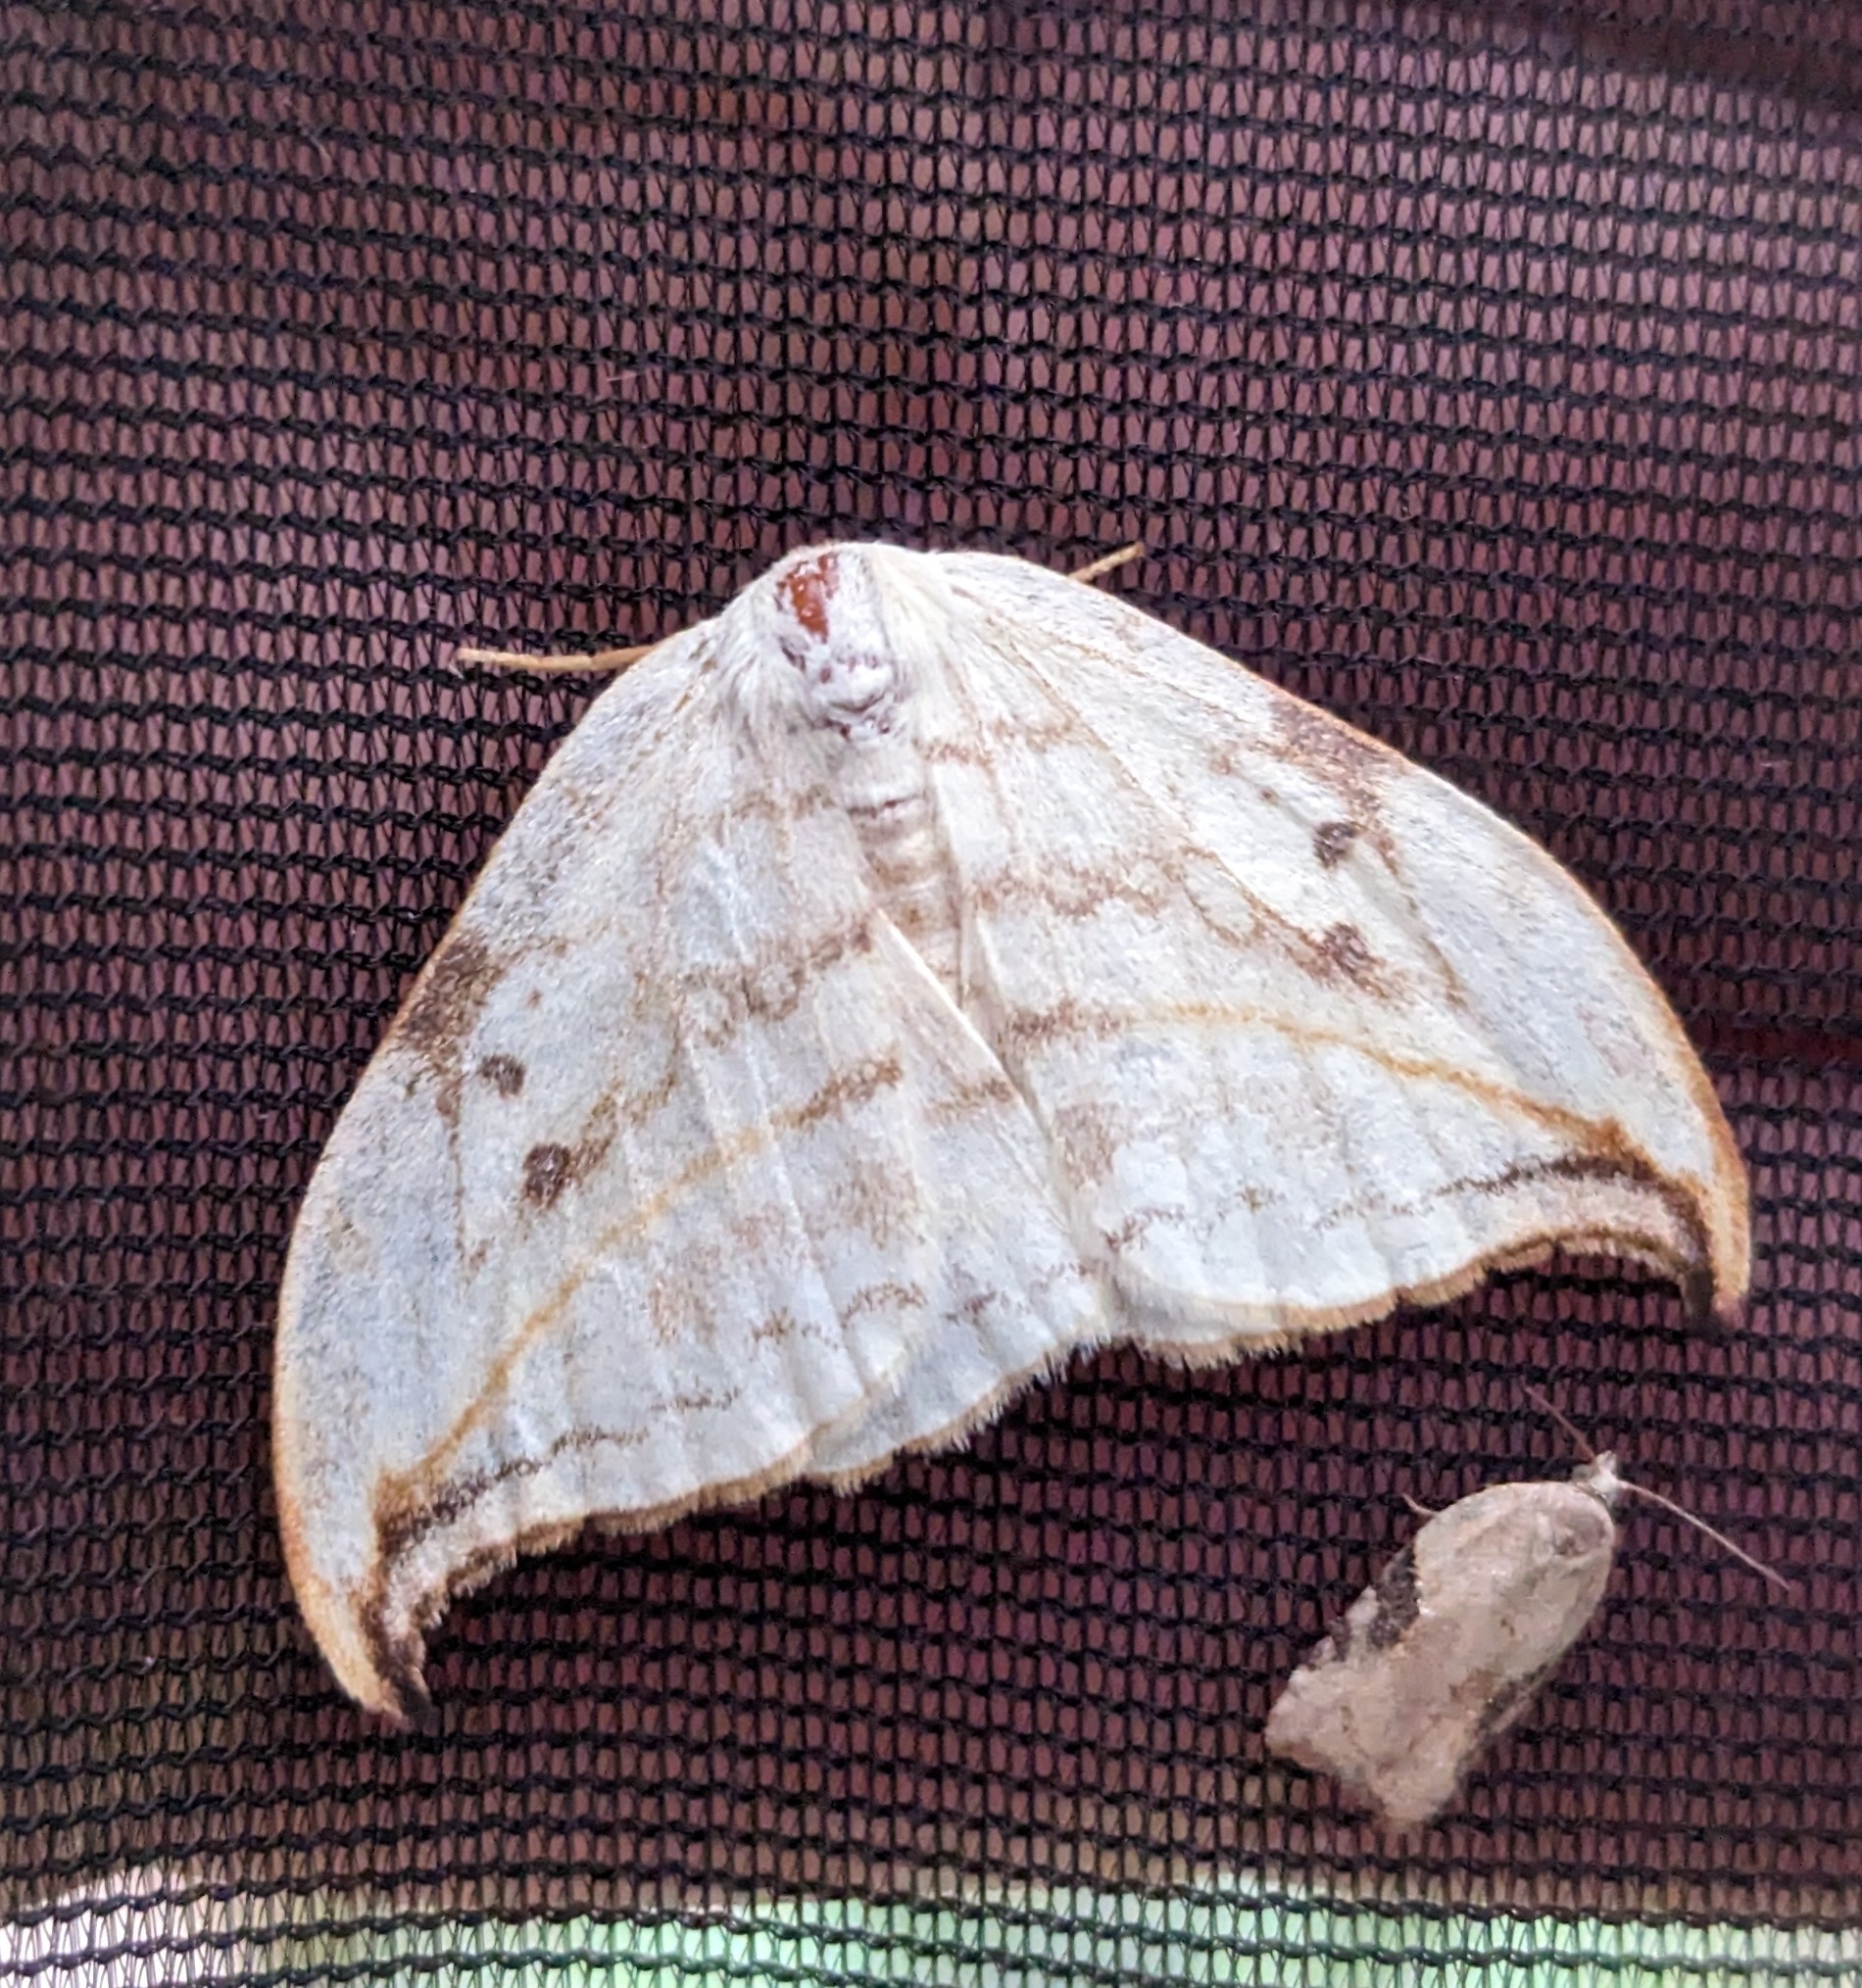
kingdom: Animalia
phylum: Arthropoda
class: Insecta
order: Lepidoptera
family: Drepanidae
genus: Drepana
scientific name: Drepana arcuata
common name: Arched hooktip moth
